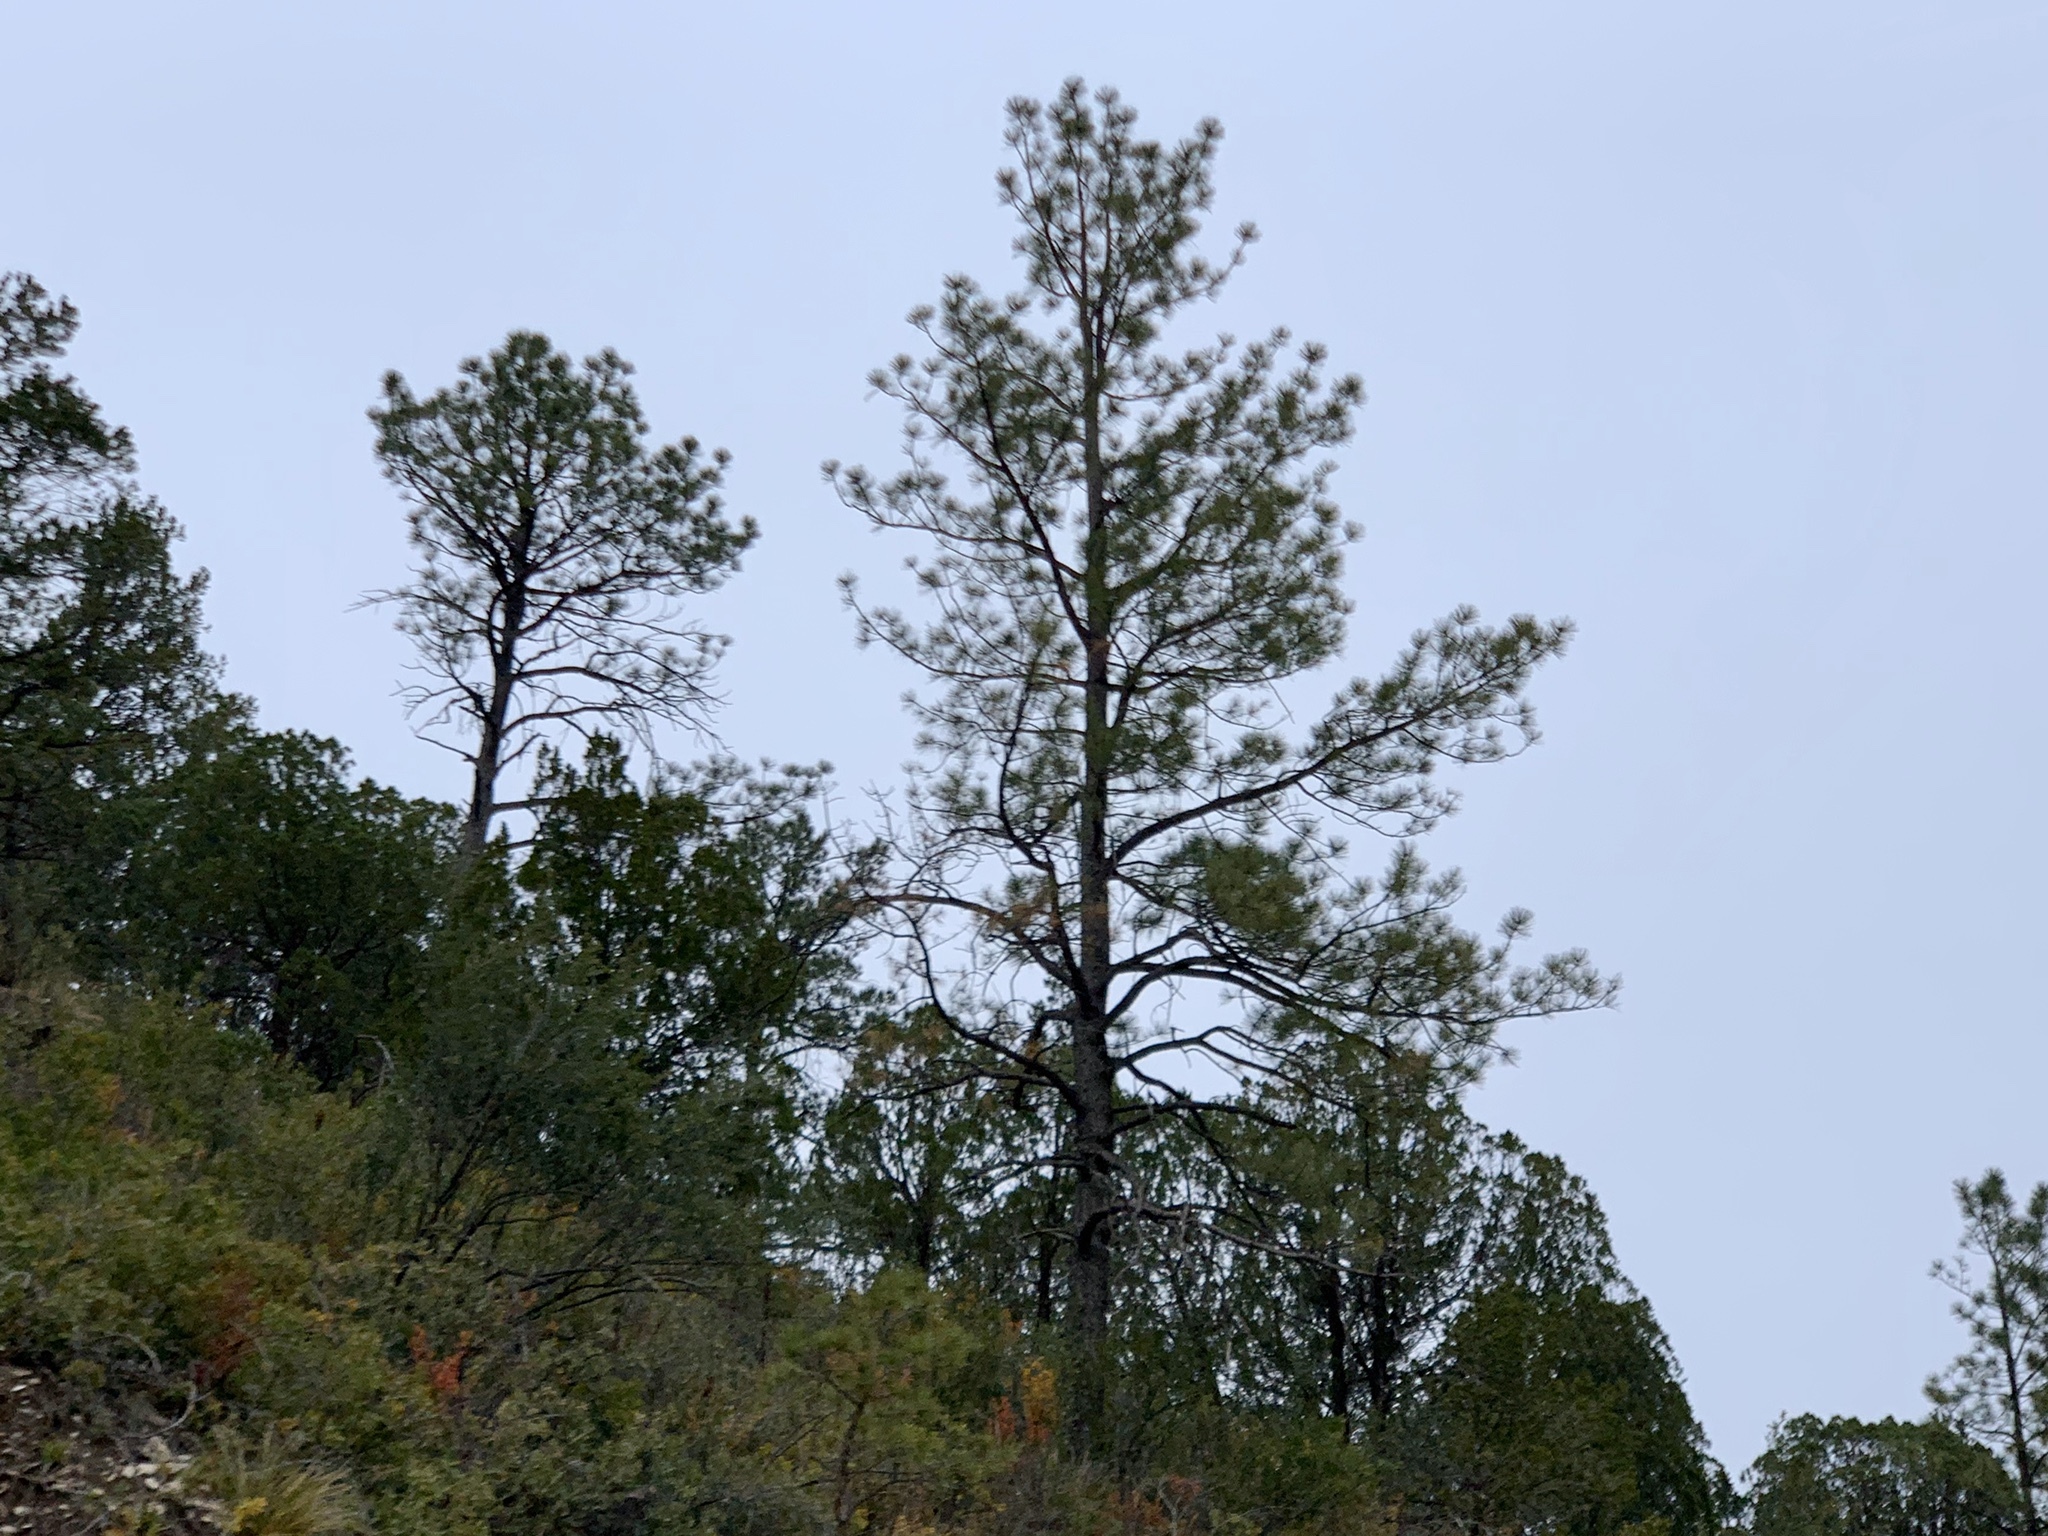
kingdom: Plantae
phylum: Tracheophyta
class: Pinopsida
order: Pinales
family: Pinaceae
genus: Pinus
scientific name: Pinus ponderosa
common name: Western yellow-pine
